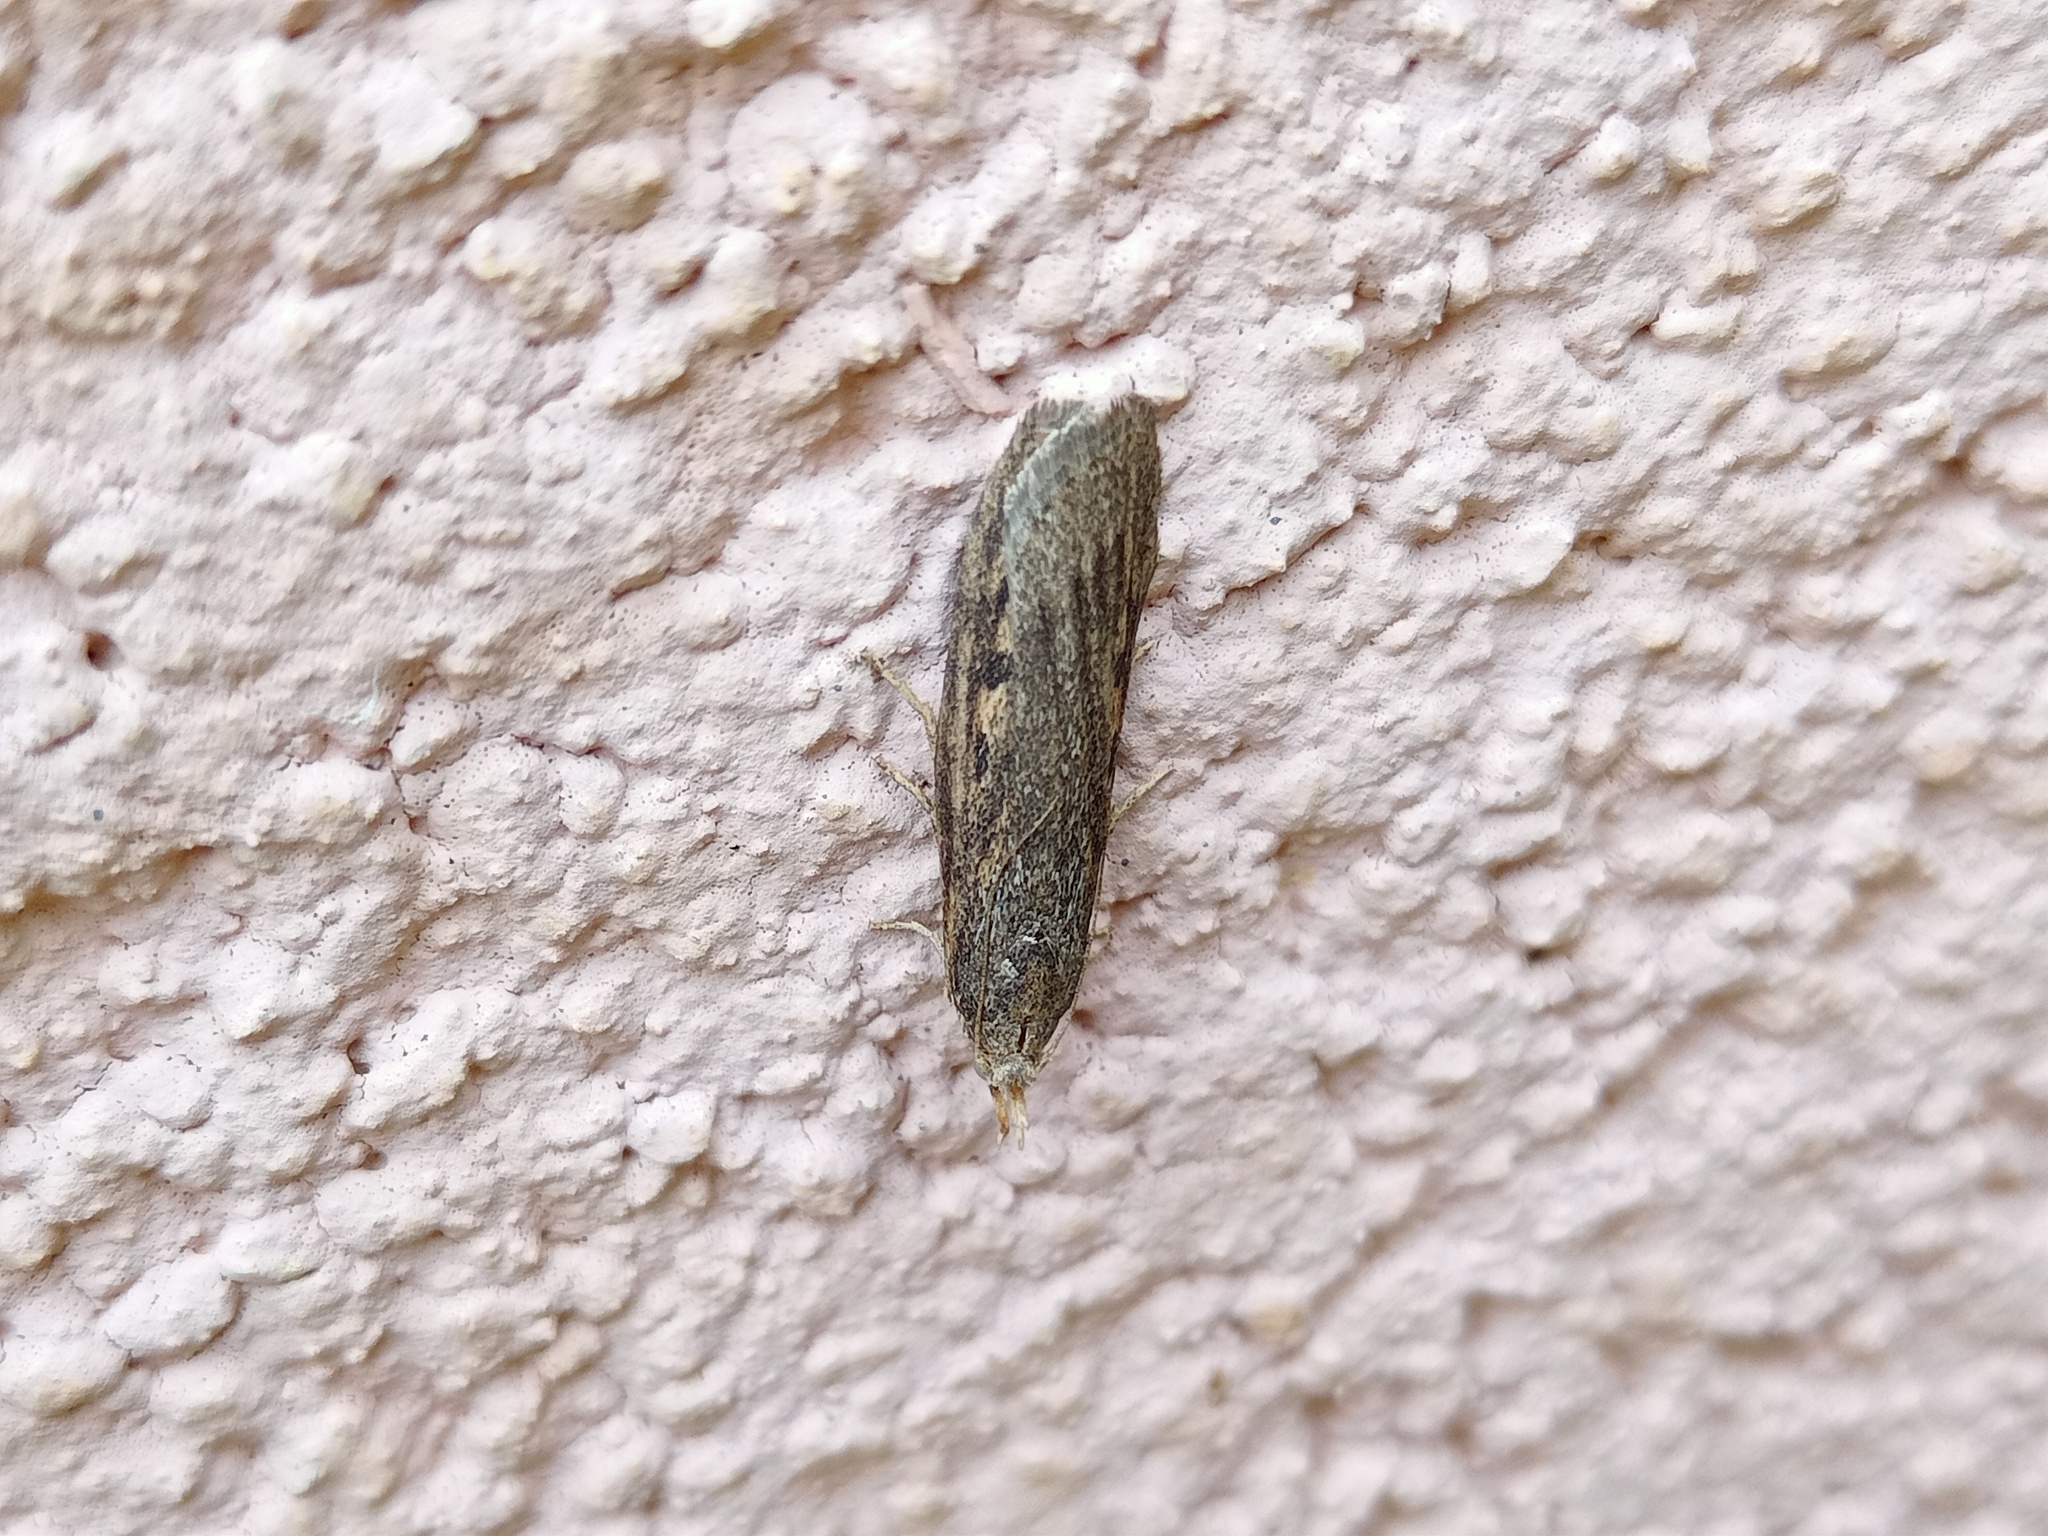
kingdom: Animalia
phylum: Arthropoda
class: Insecta
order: Lepidoptera
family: Pyralidae
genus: Aphomia
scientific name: Aphomia zelleri
